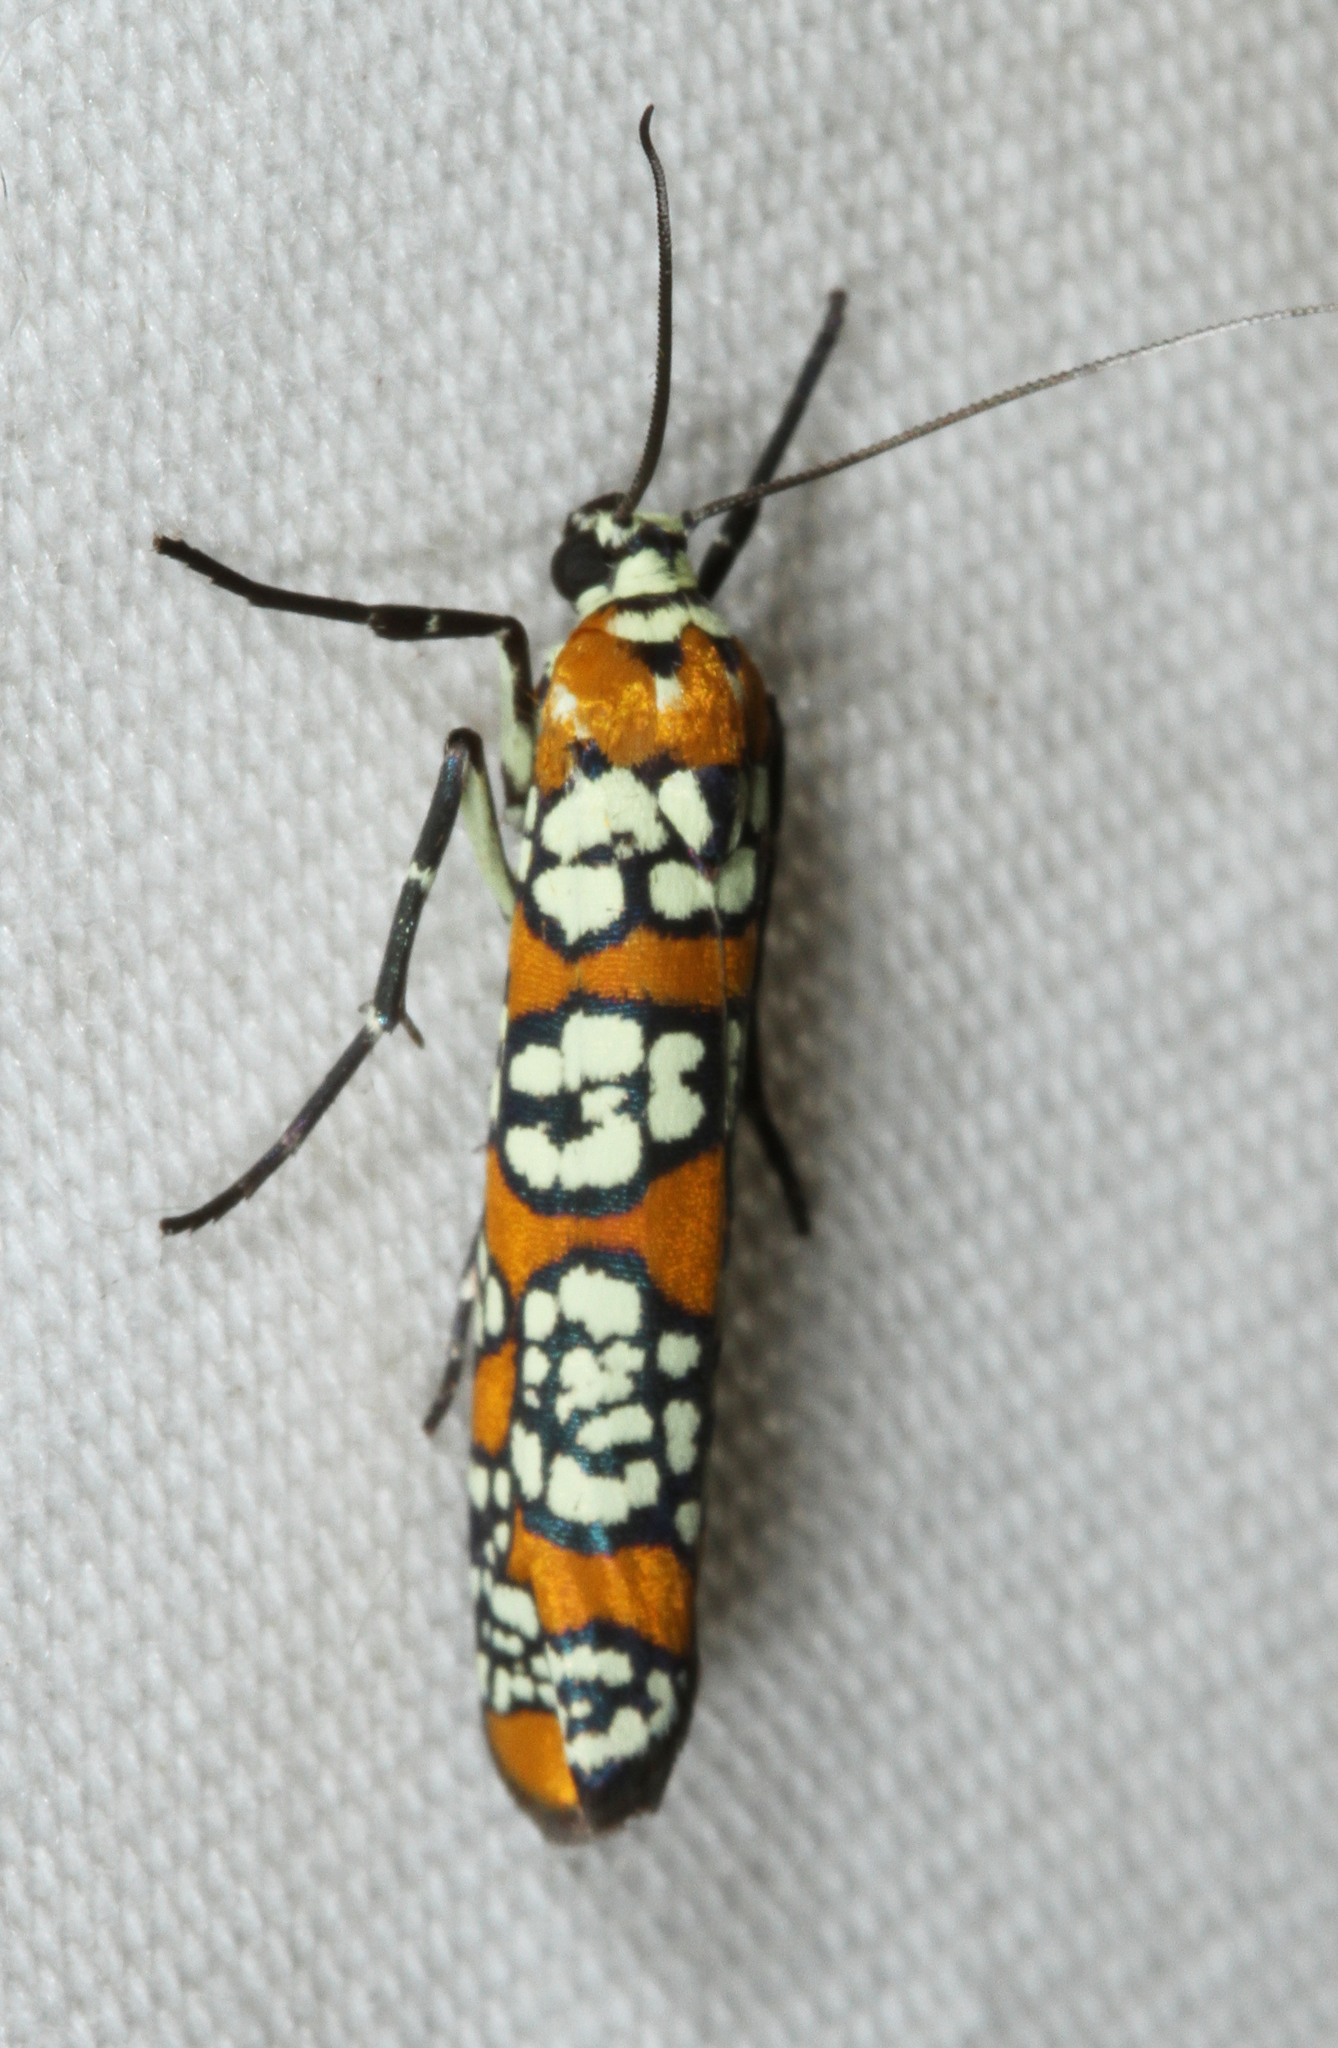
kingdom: Animalia
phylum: Arthropoda
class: Insecta
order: Lepidoptera
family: Attevidae
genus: Atteva
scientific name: Atteva punctella
